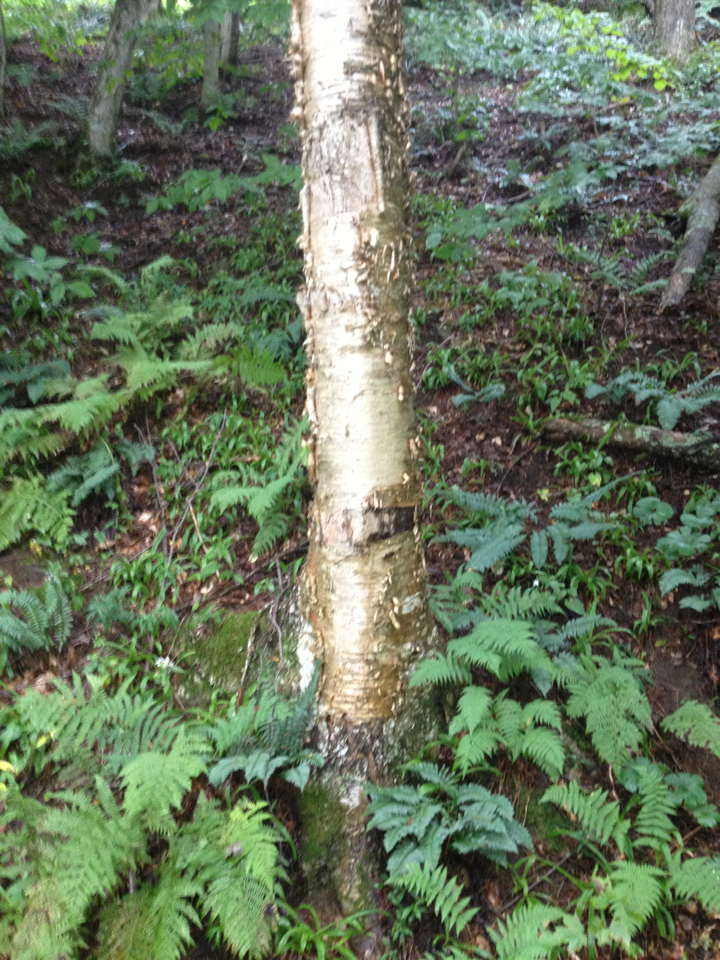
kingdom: Plantae
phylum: Tracheophyta
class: Magnoliopsida
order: Fagales
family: Betulaceae
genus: Betula
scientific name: Betula alleghaniensis
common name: Yellow birch
